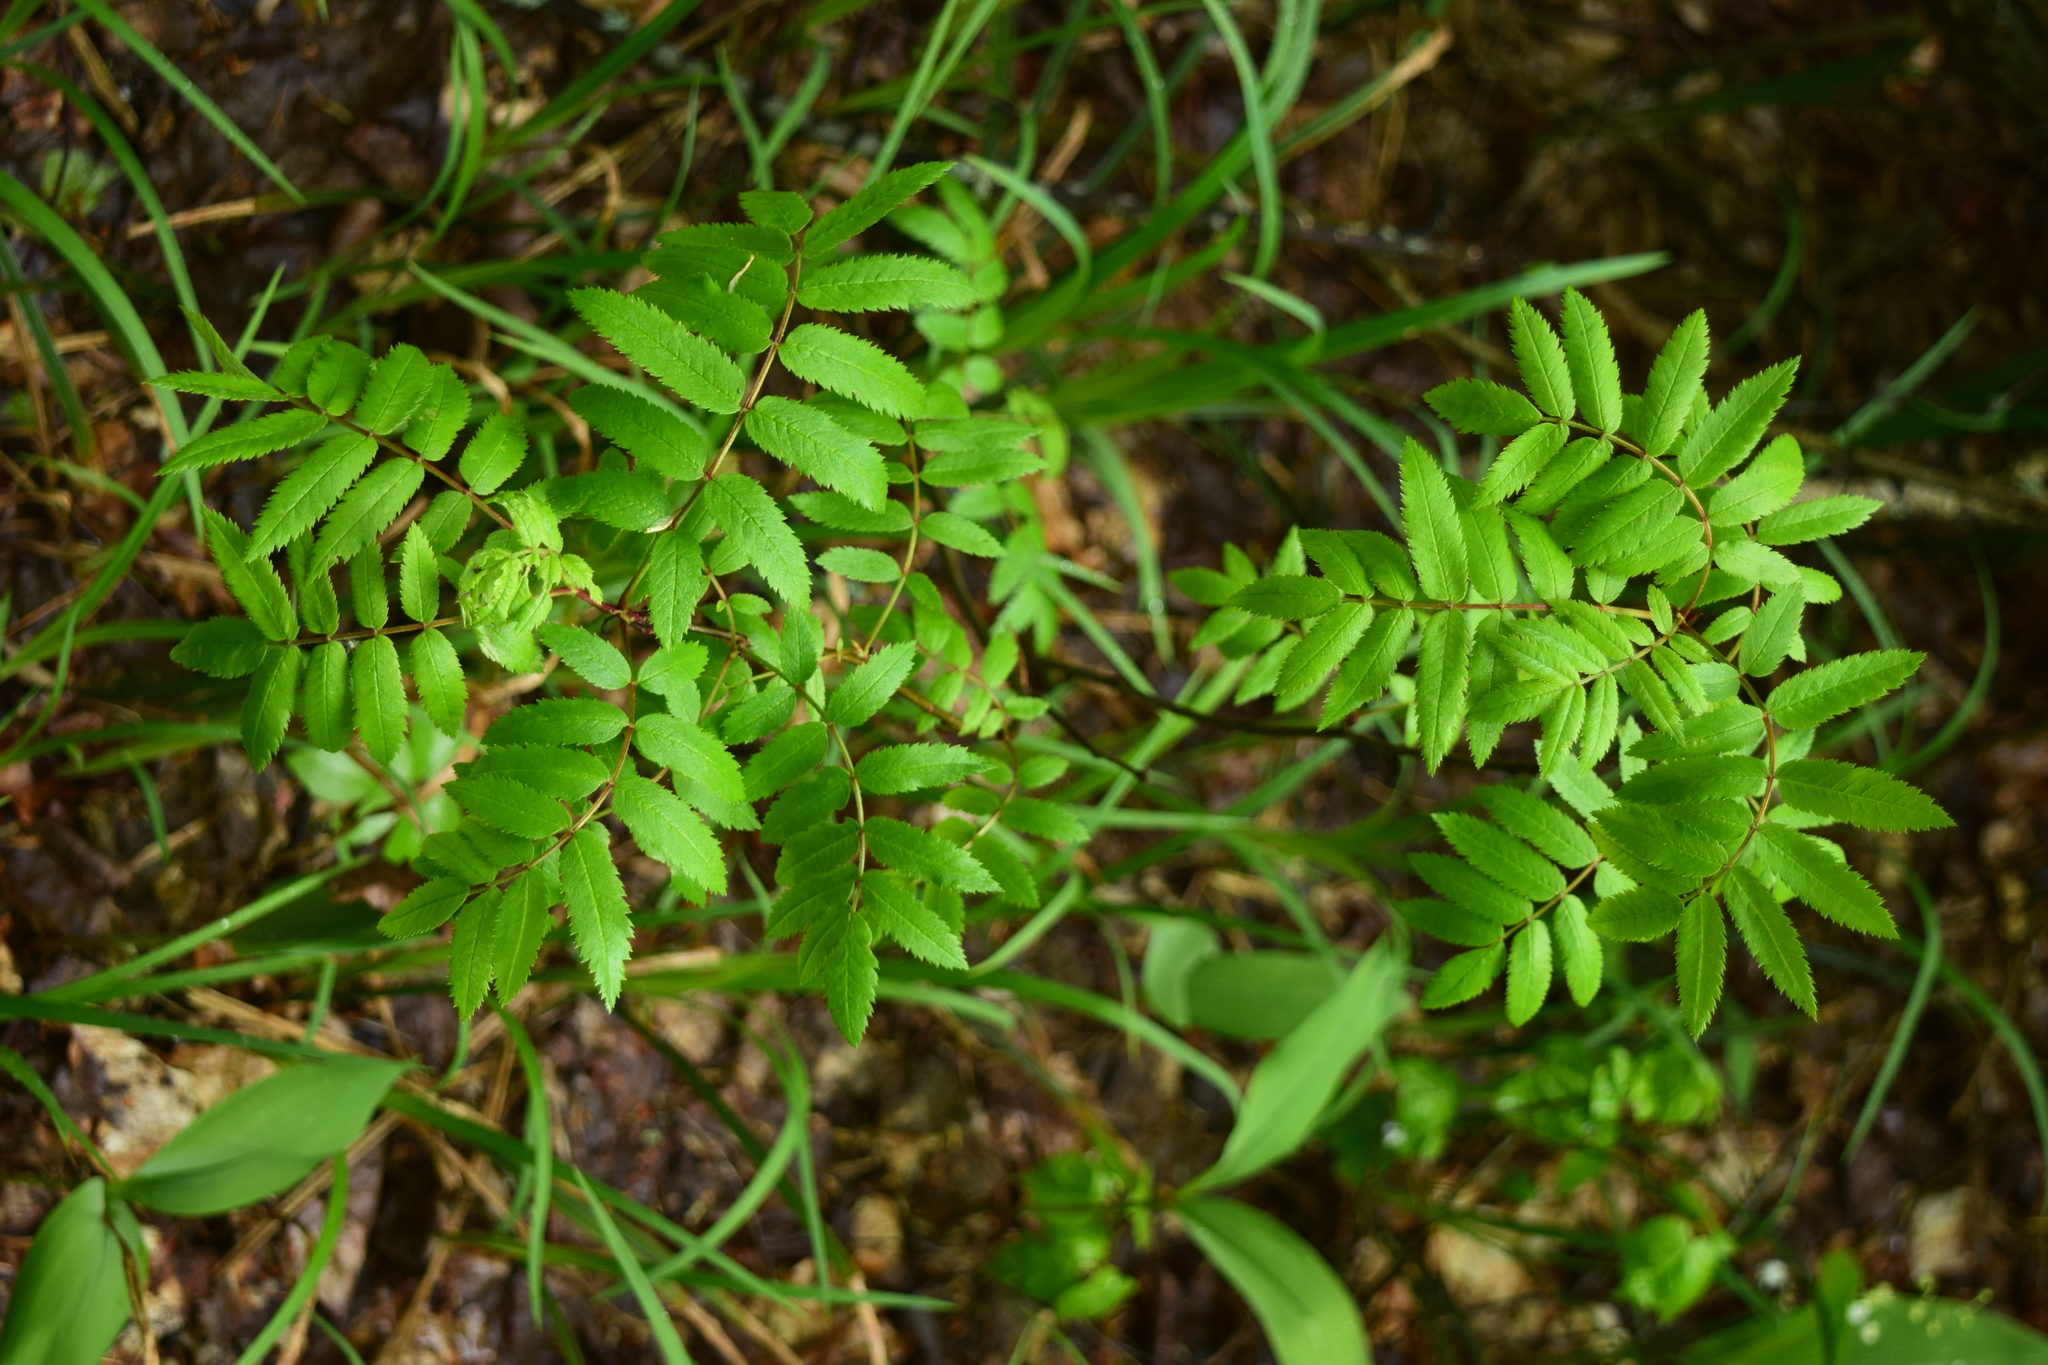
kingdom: Plantae
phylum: Tracheophyta
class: Magnoliopsida
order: Rosales
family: Rosaceae
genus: Sorbus
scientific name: Sorbus aucuparia
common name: Rowan
